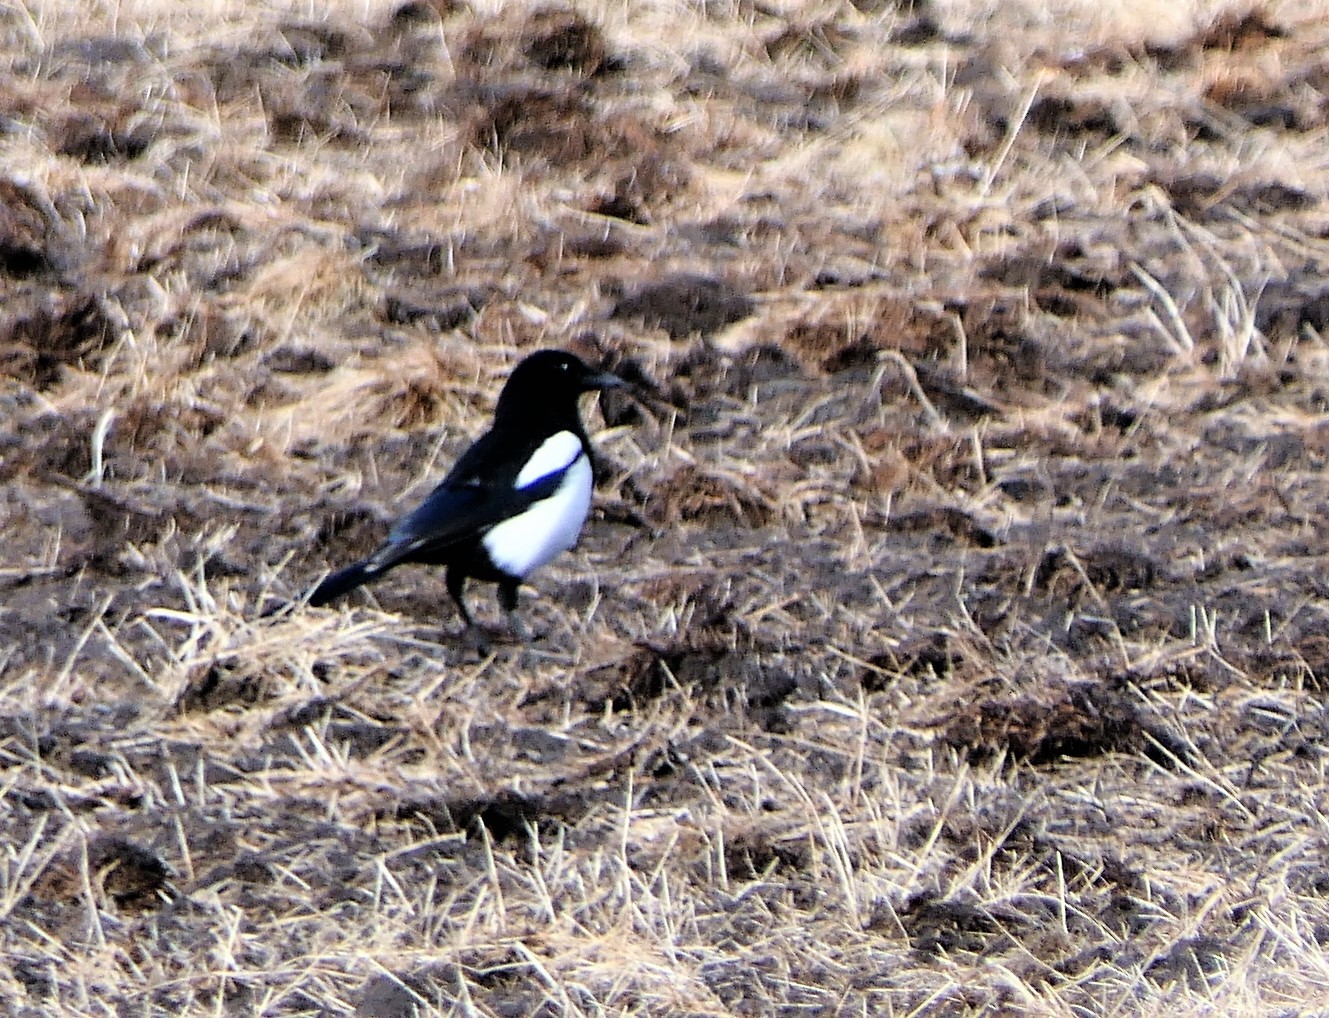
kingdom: Animalia
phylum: Chordata
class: Aves
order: Passeriformes
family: Corvidae
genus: Pica
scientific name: Pica pica
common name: Eurasian magpie
